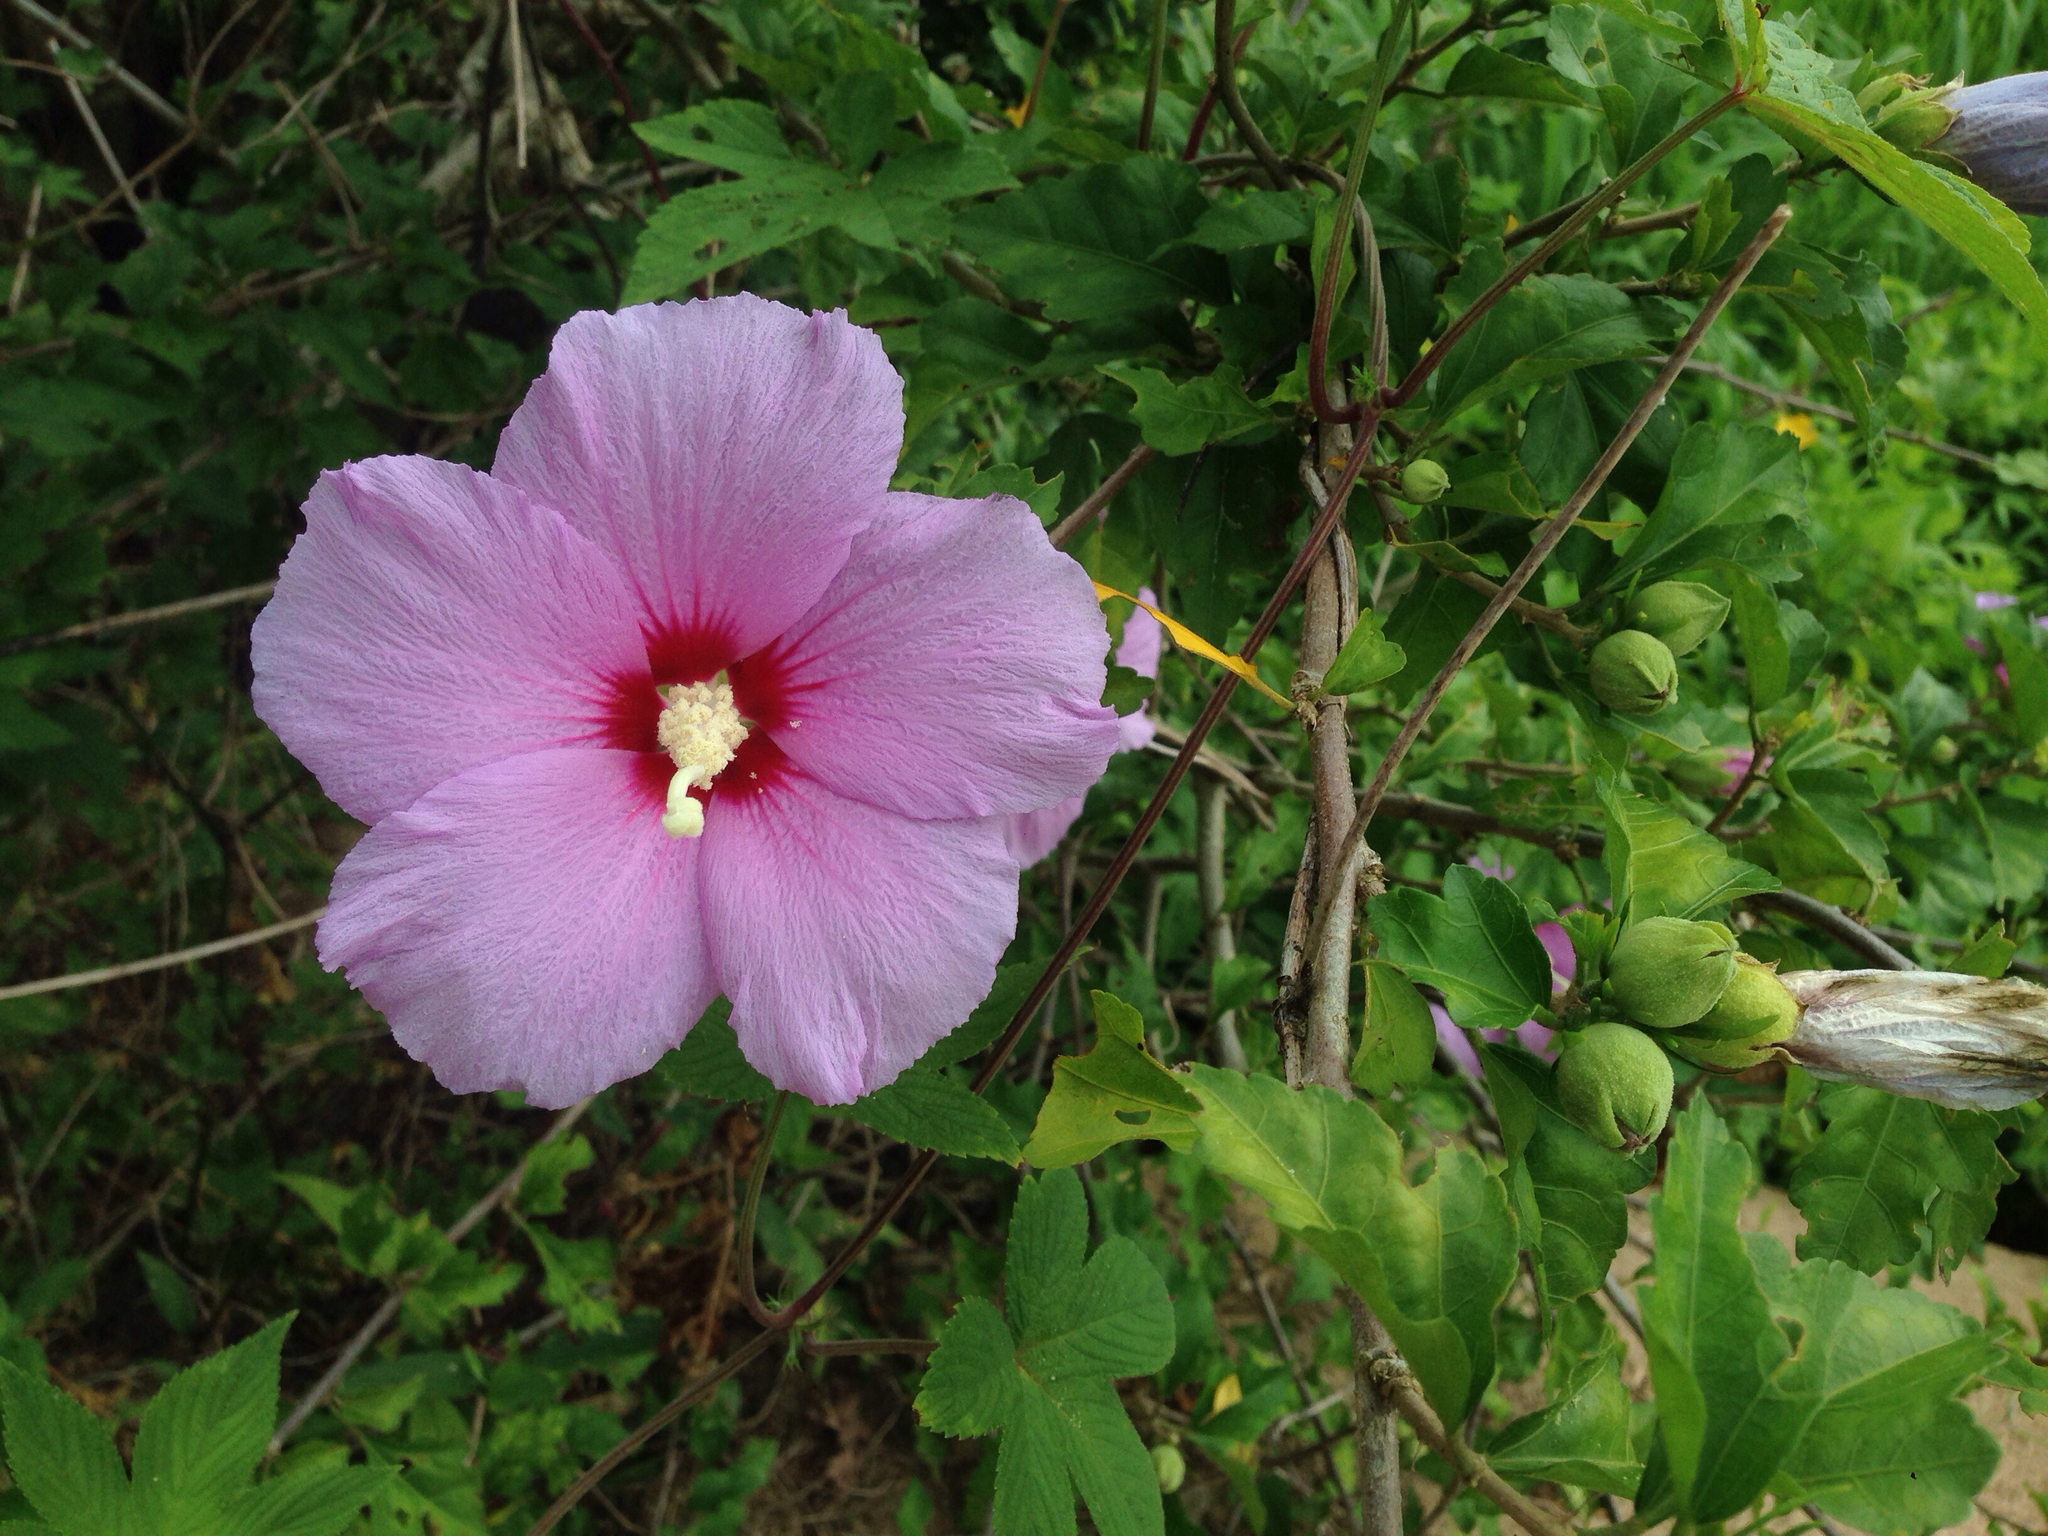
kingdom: Plantae
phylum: Tracheophyta
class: Magnoliopsida
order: Malvales
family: Malvaceae
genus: Hibiscus
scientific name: Hibiscus syriacus
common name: Syrian ketmia
